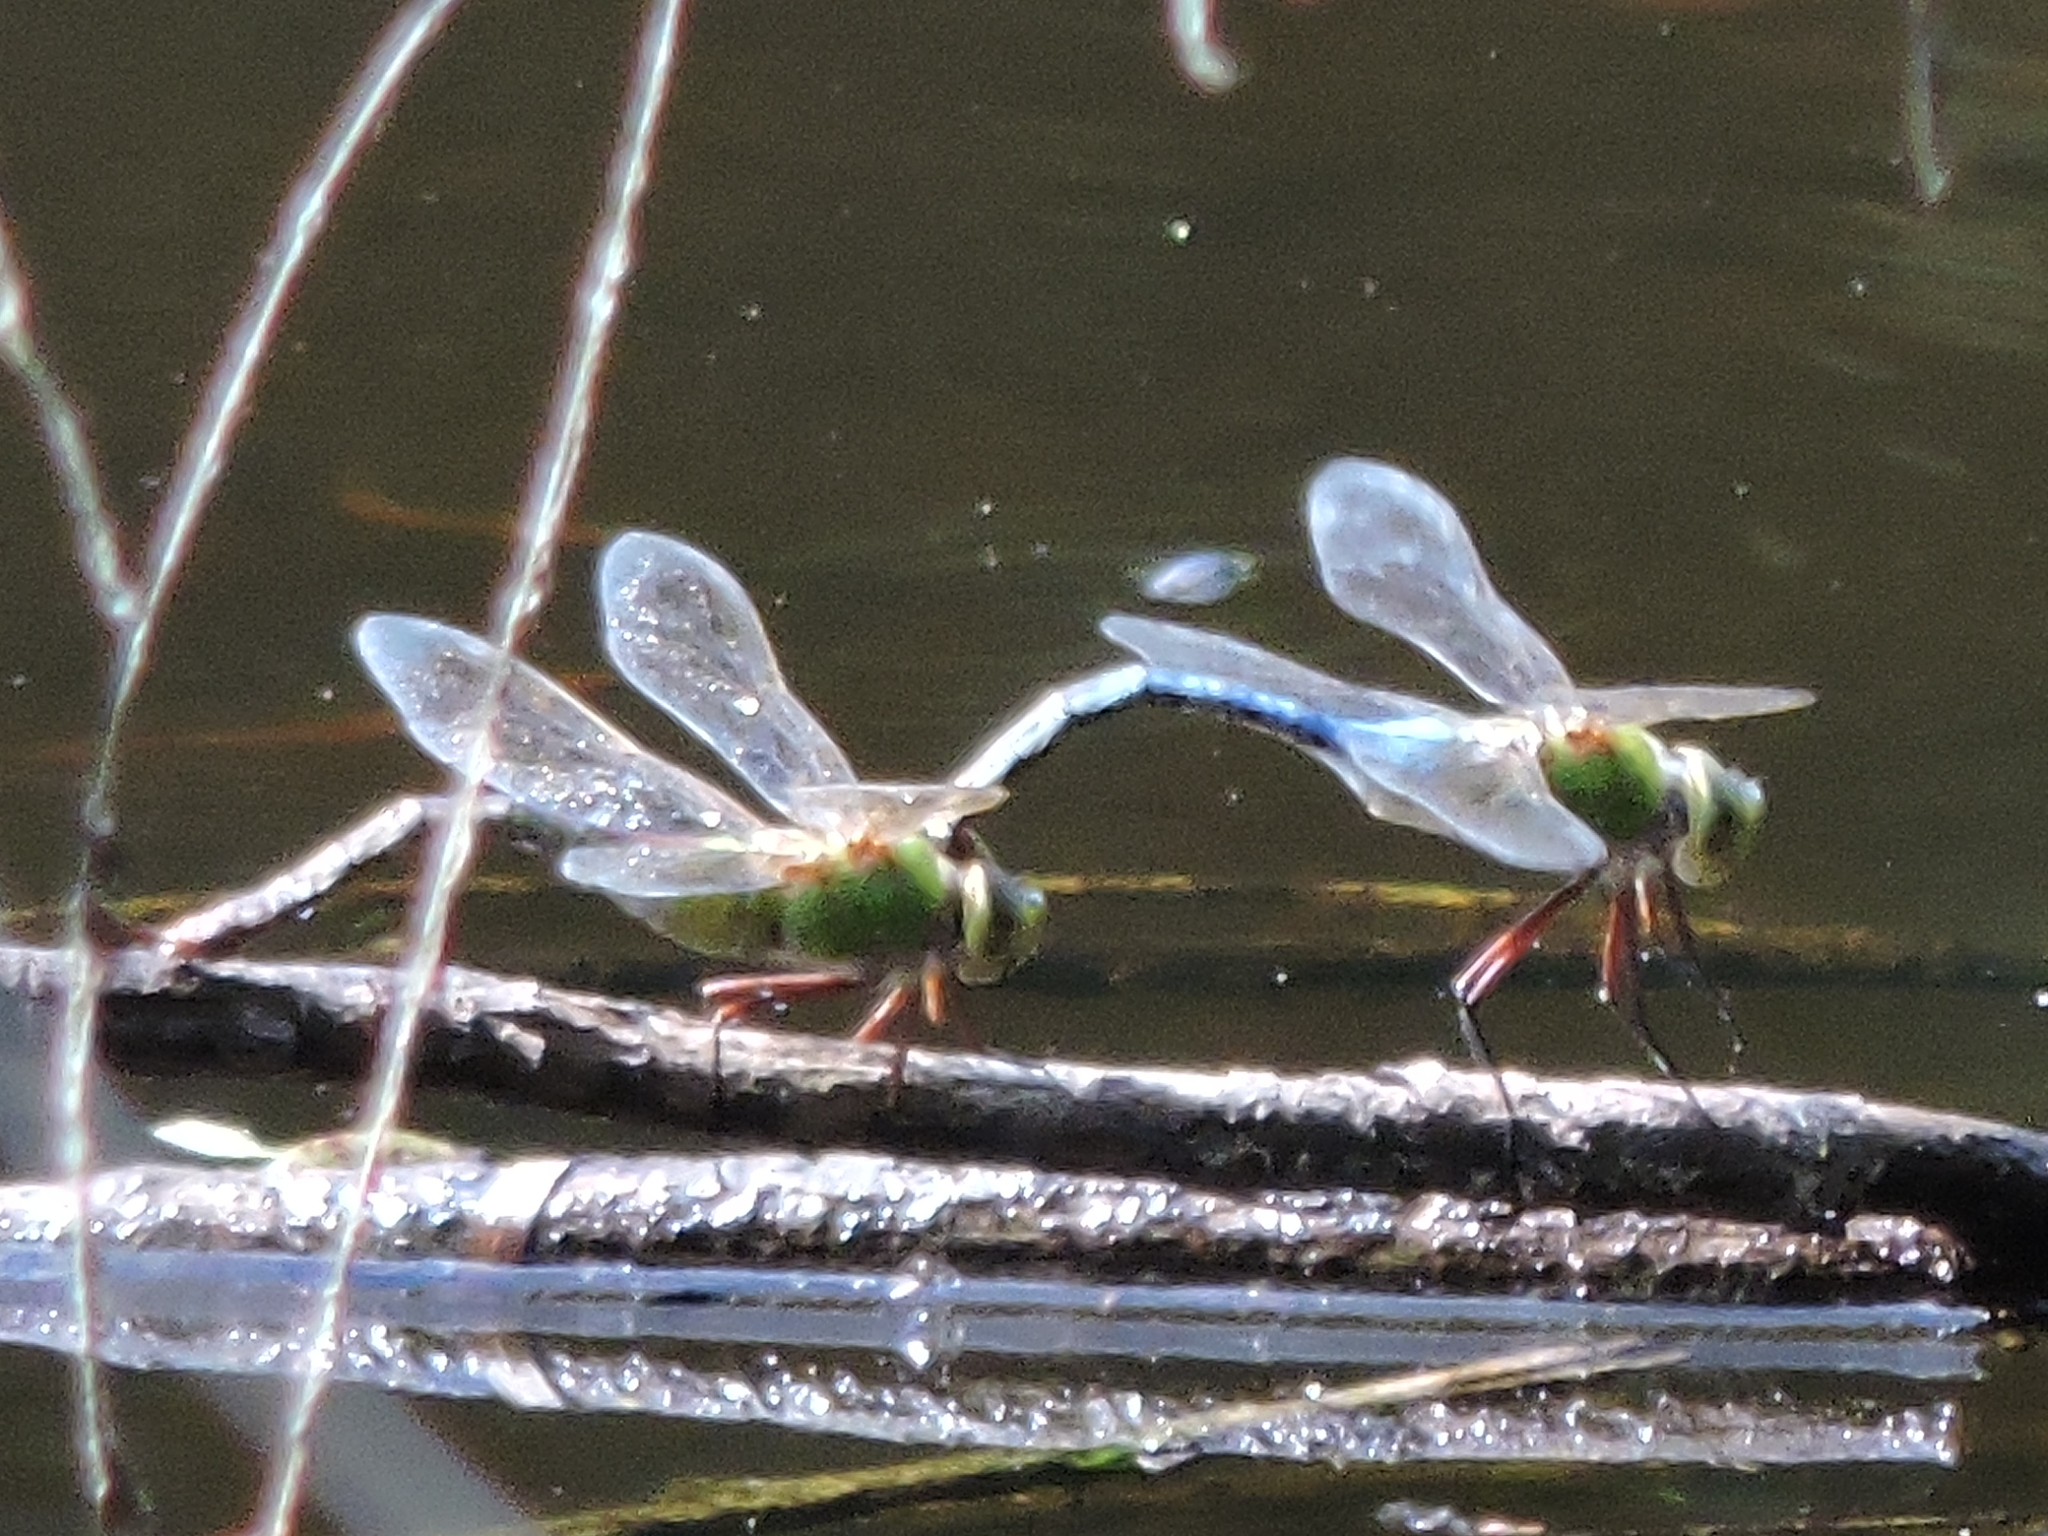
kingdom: Animalia
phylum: Arthropoda
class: Insecta
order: Odonata
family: Aeshnidae
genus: Anax
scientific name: Anax junius
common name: Common green darner
